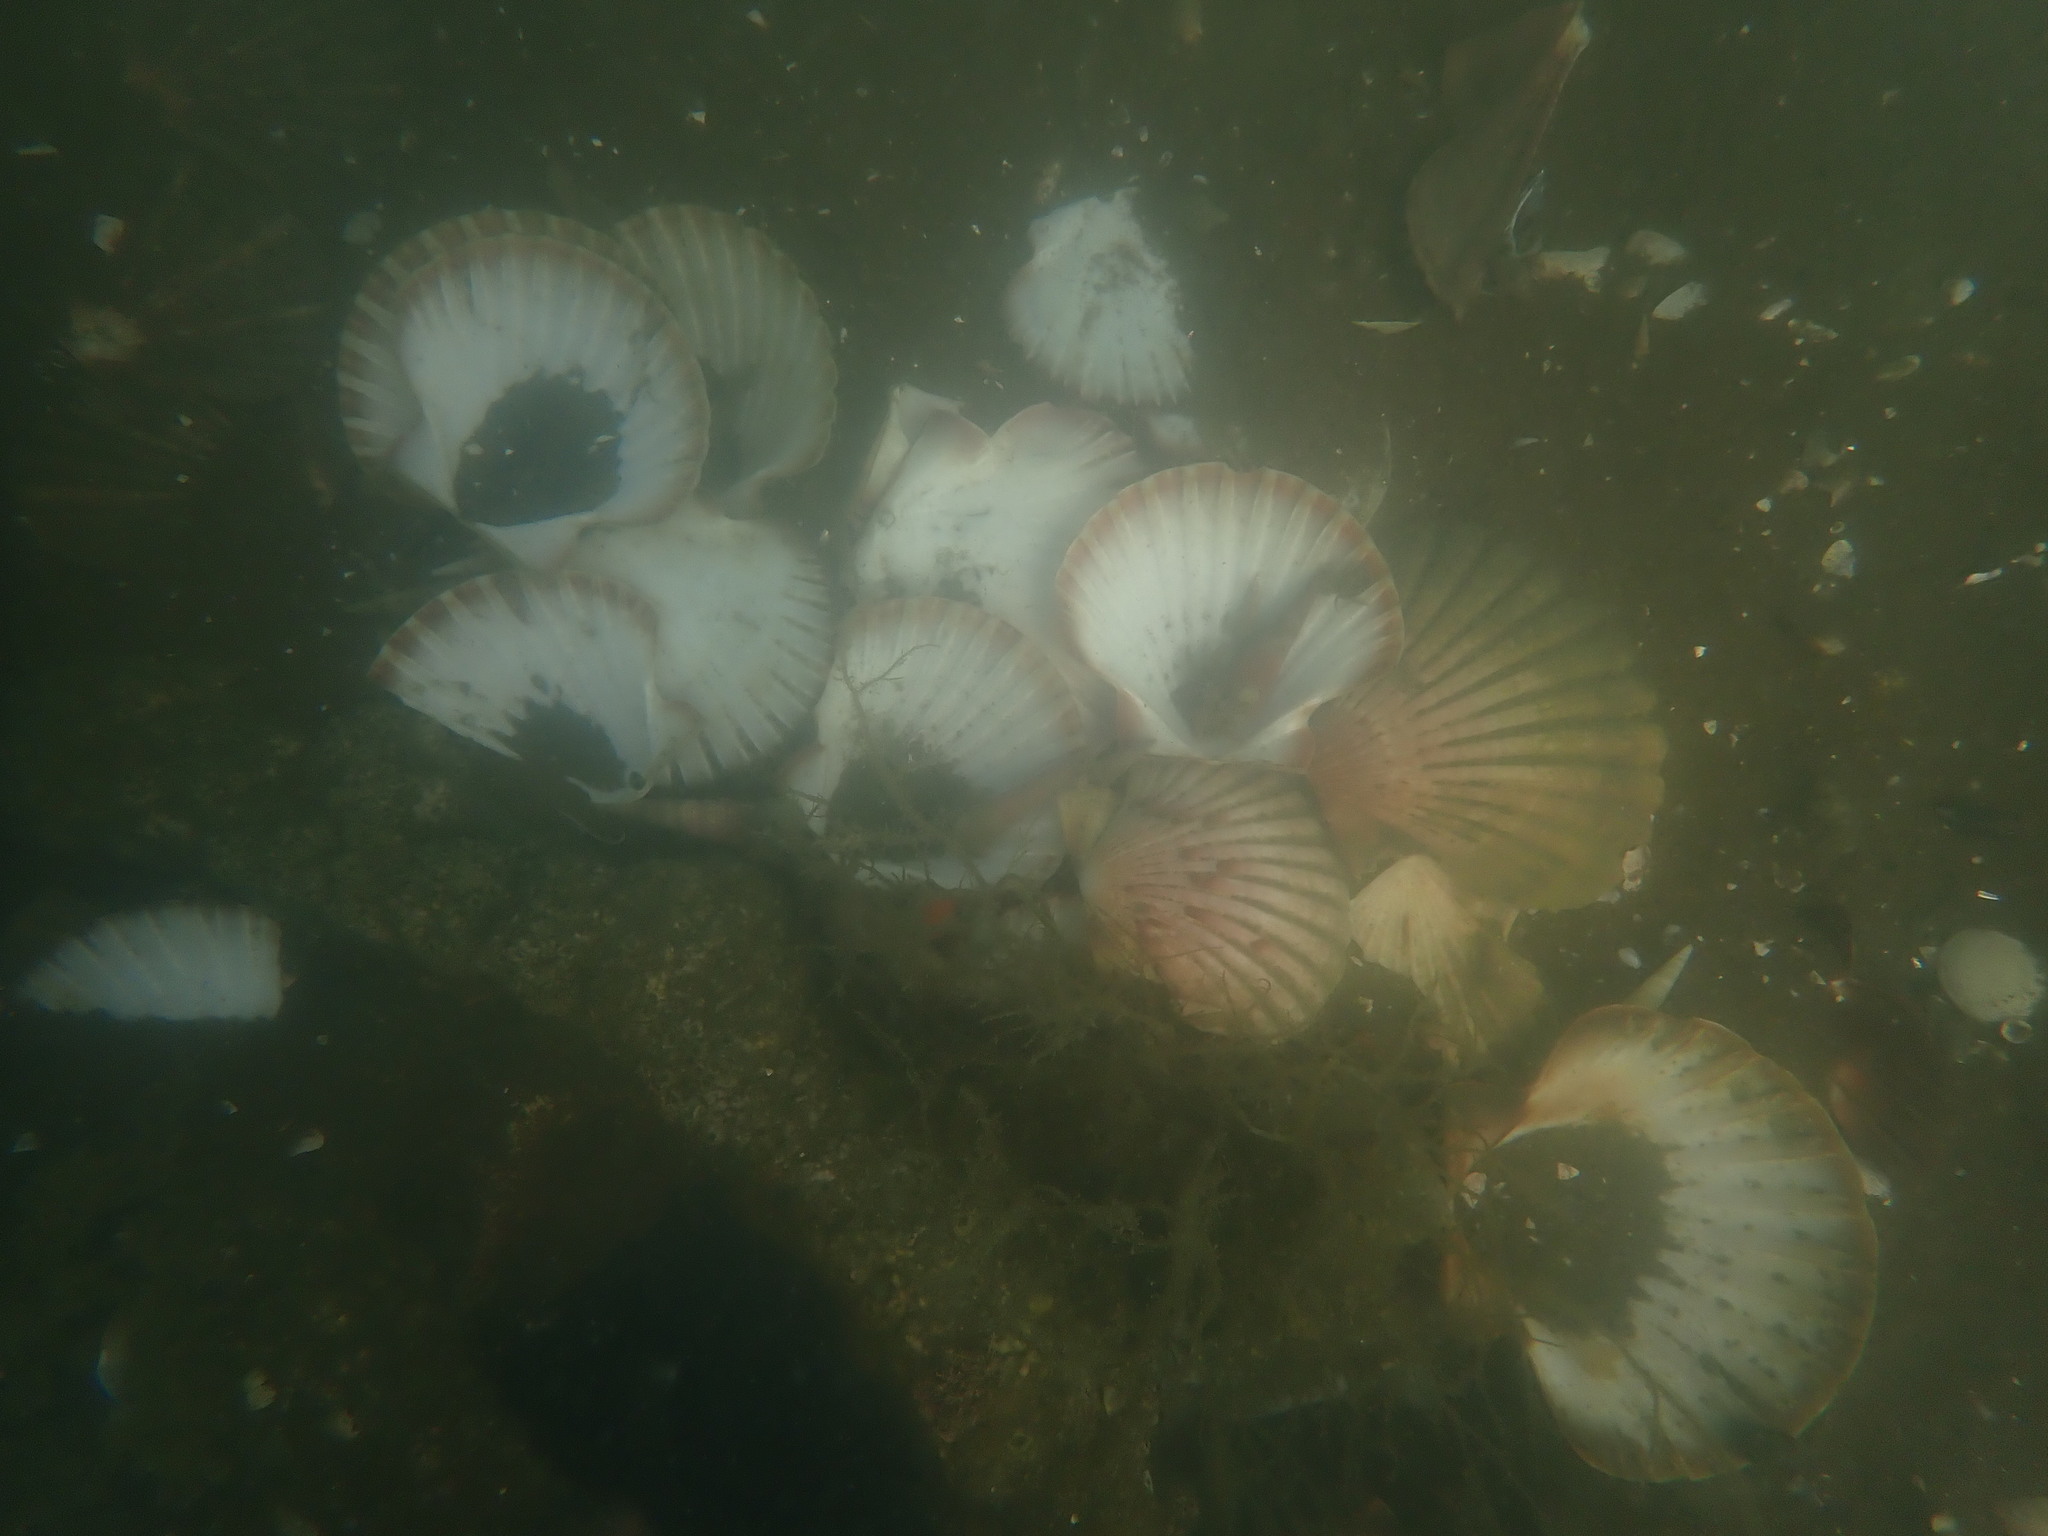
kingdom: Animalia
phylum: Mollusca
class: Cephalopoda
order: Octopoda
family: Octopodidae
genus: Octopus
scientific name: Octopus tetricus
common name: Sydney octopus
